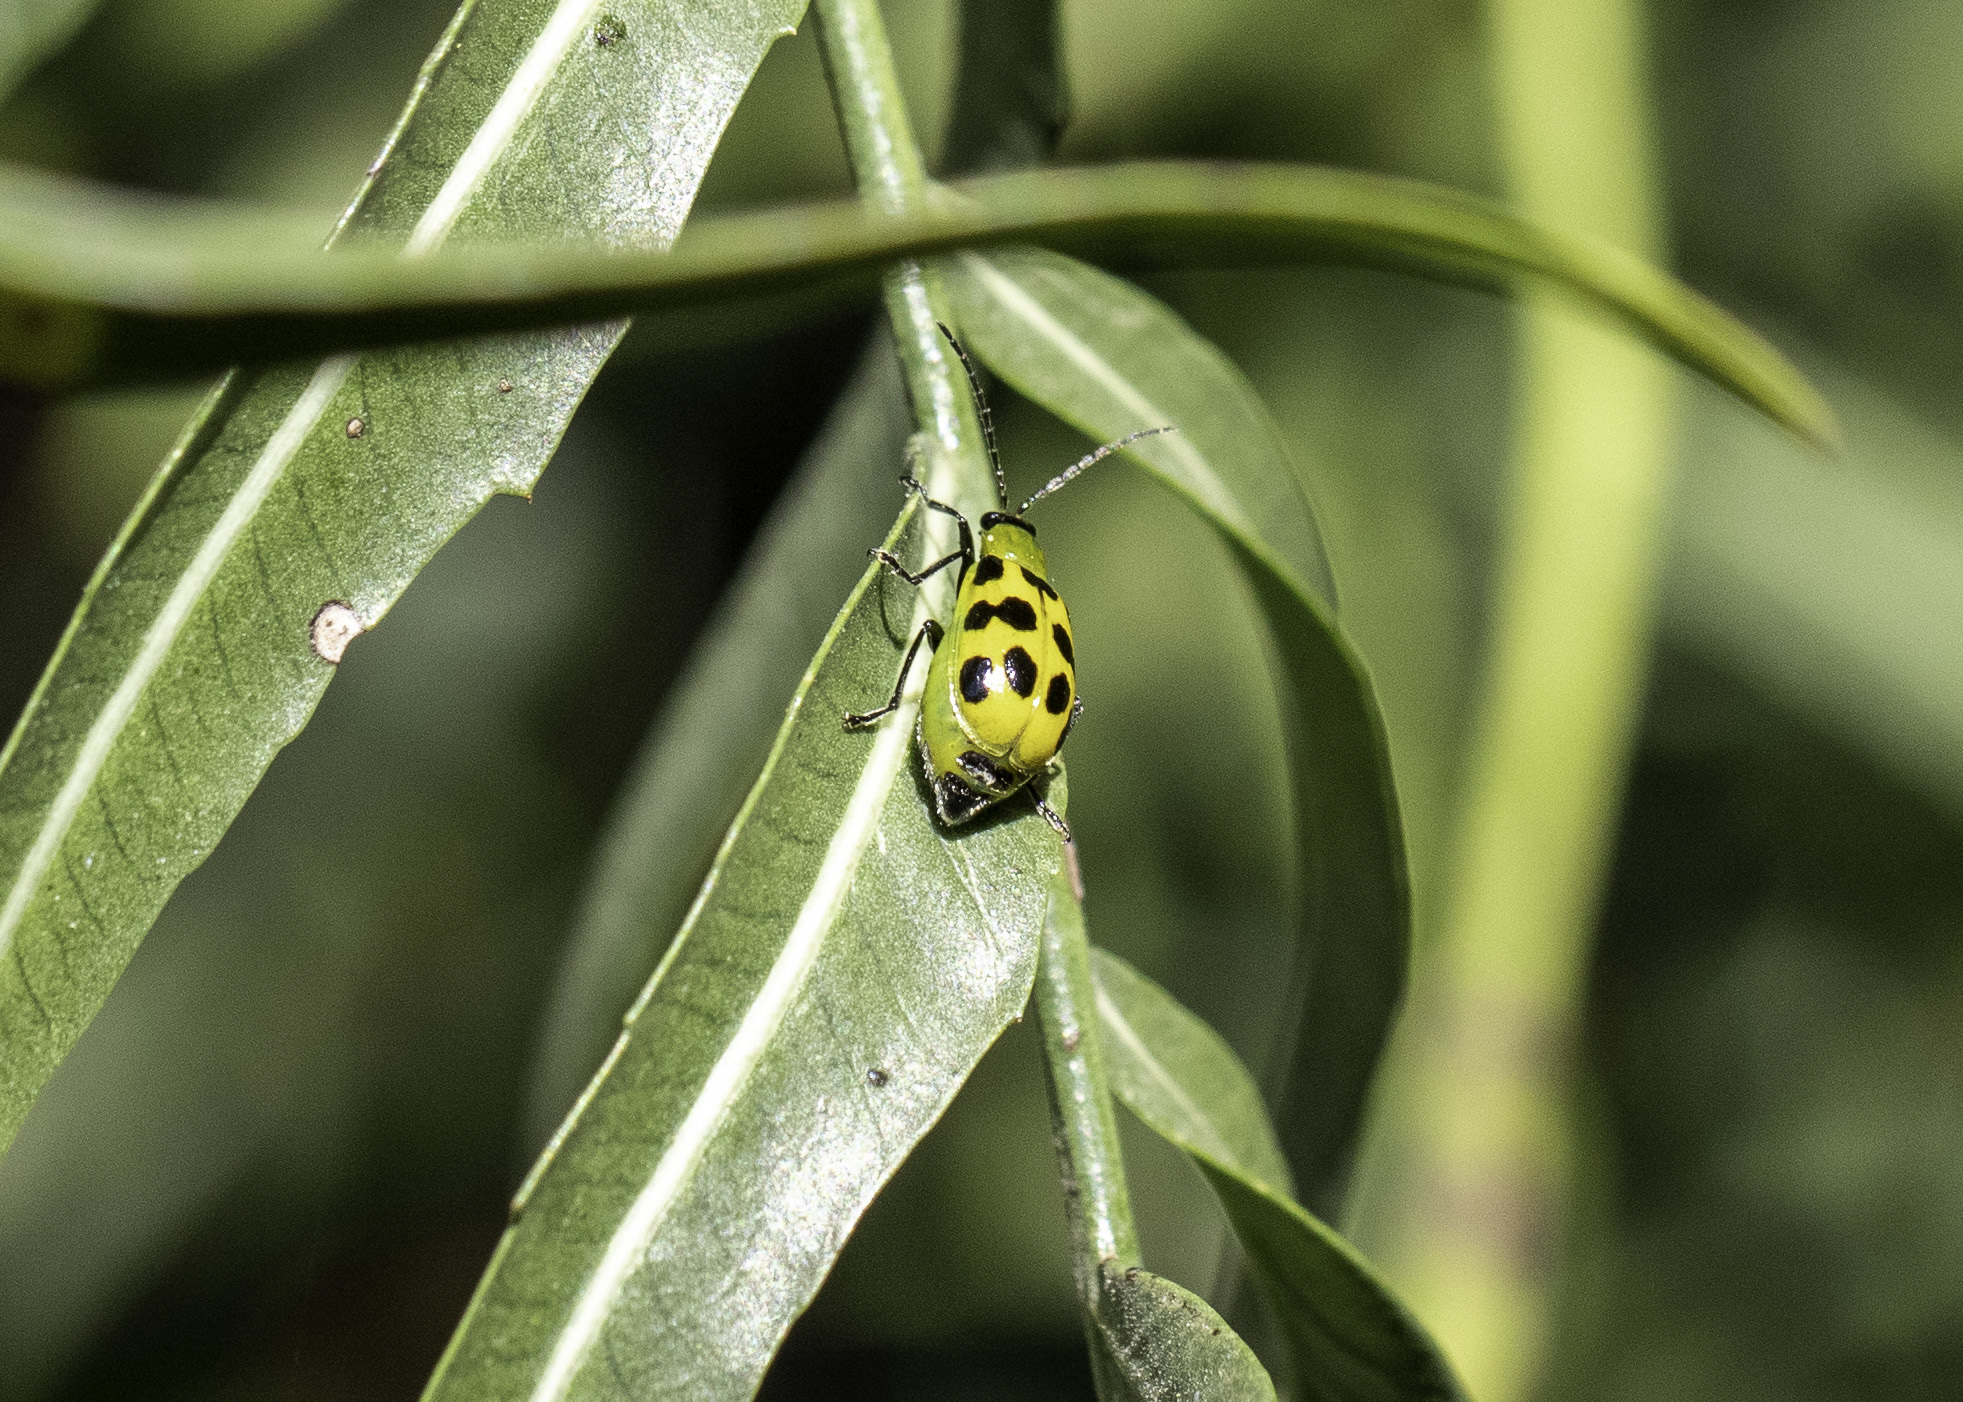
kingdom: Animalia
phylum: Arthropoda
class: Insecta
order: Coleoptera
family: Chrysomelidae
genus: Diabrotica
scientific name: Diabrotica undecimpunctata
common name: Spotted cucumber beetle
